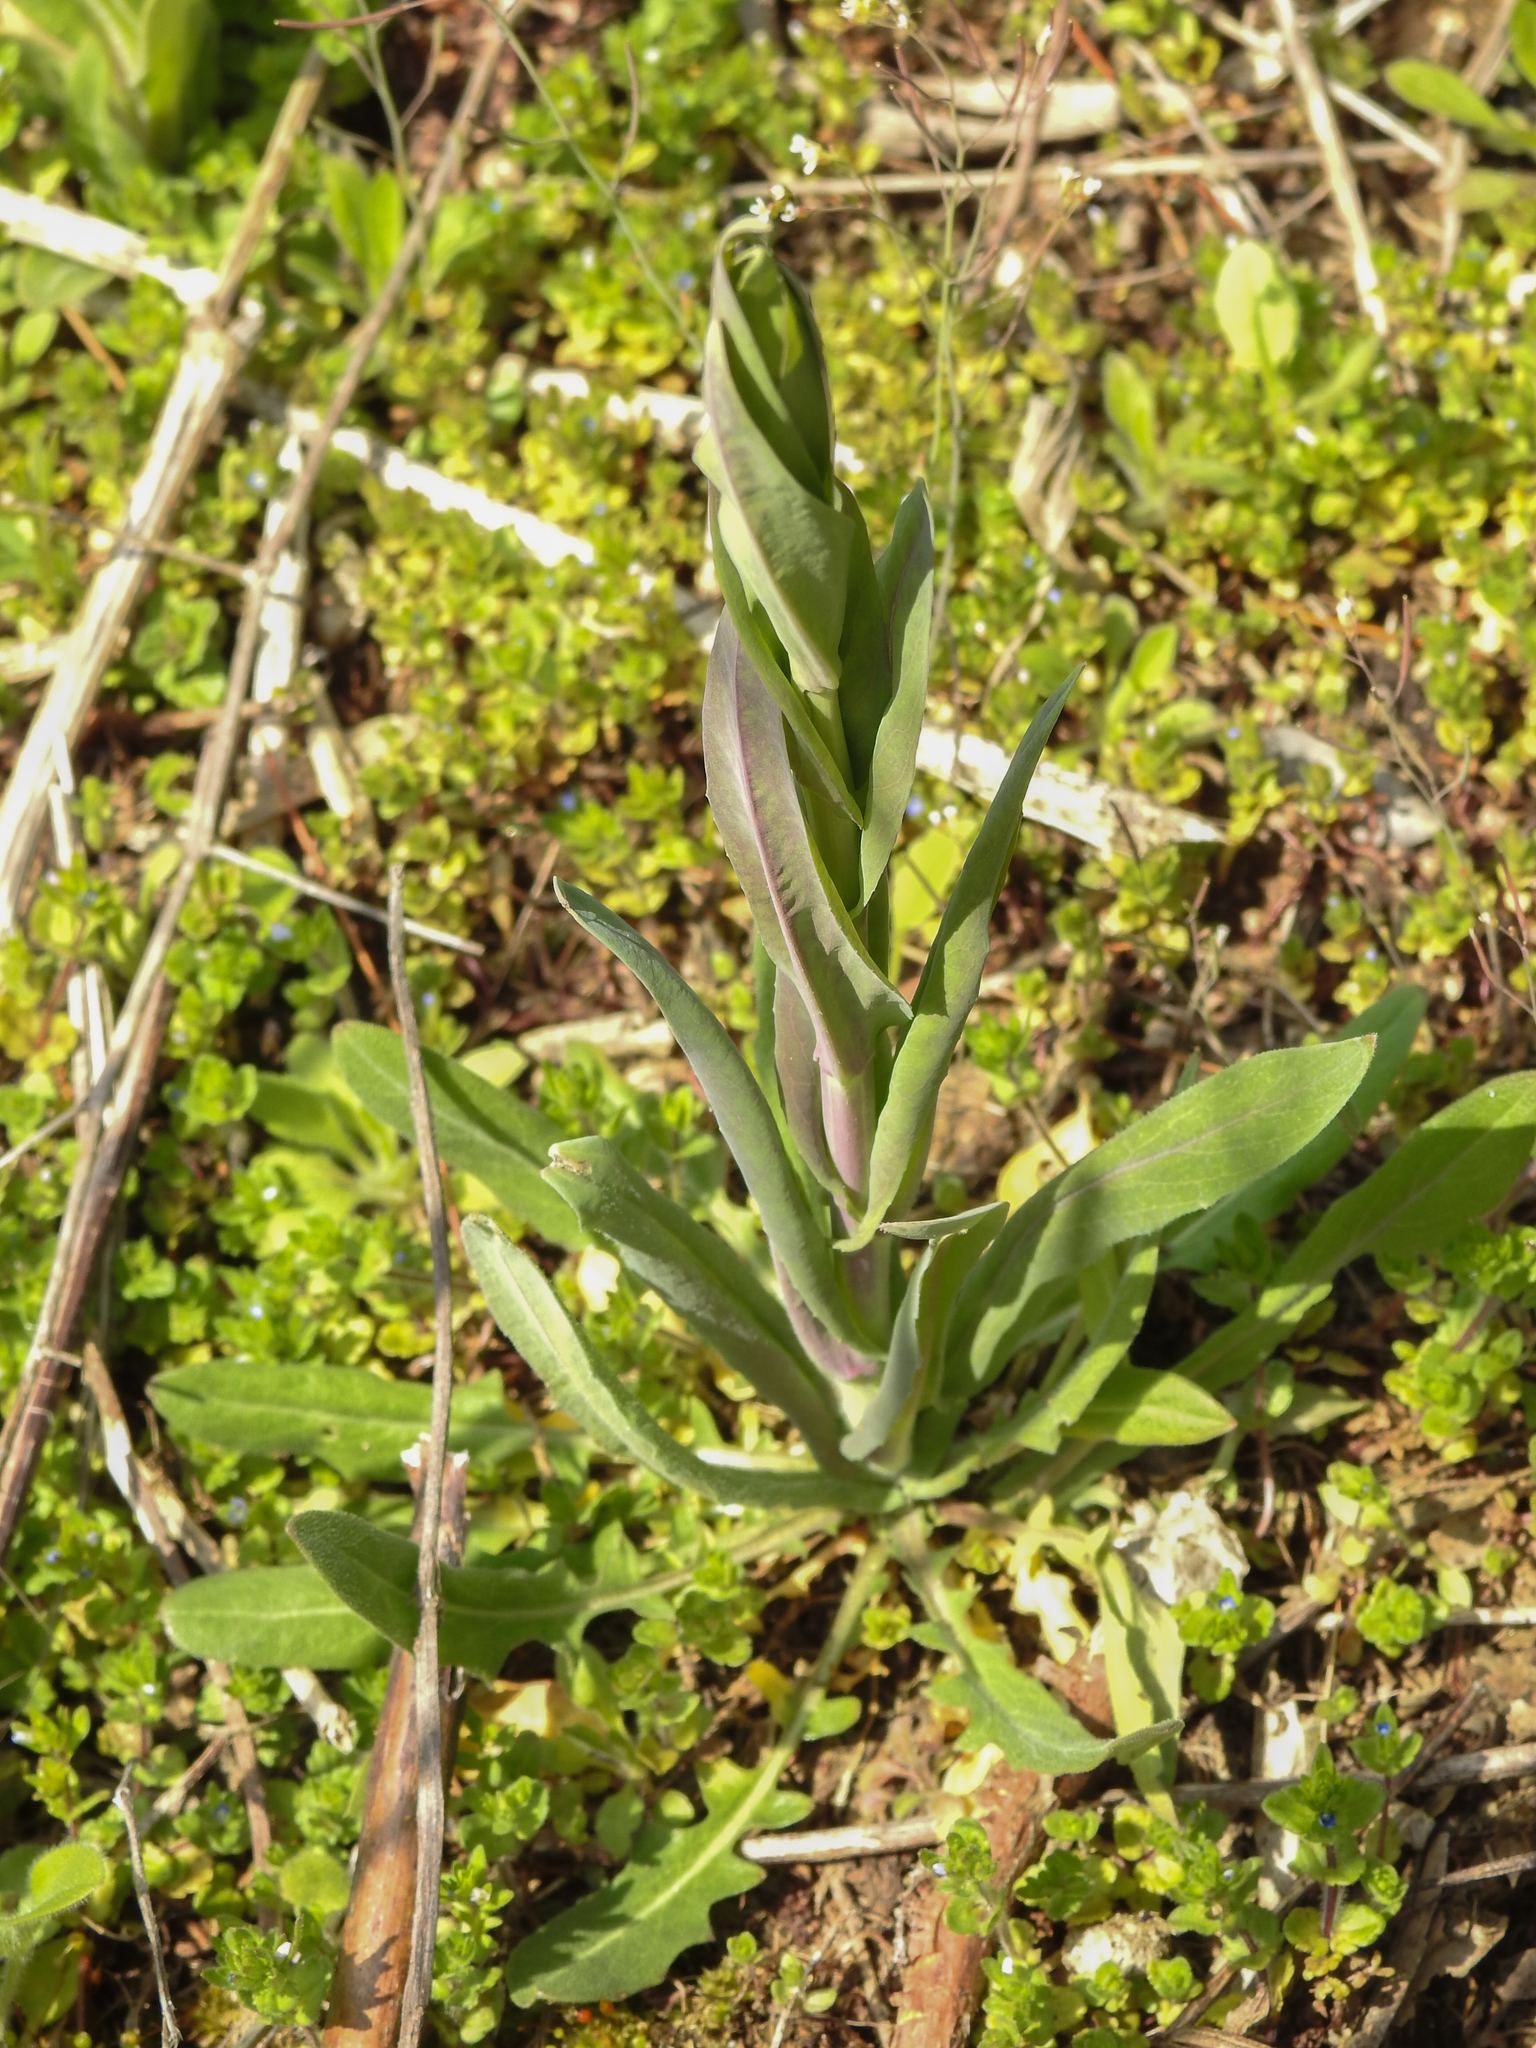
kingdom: Plantae
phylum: Tracheophyta
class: Magnoliopsida
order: Brassicales
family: Brassicaceae
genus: Turritis
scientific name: Turritis glabra
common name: Tower rockcress
